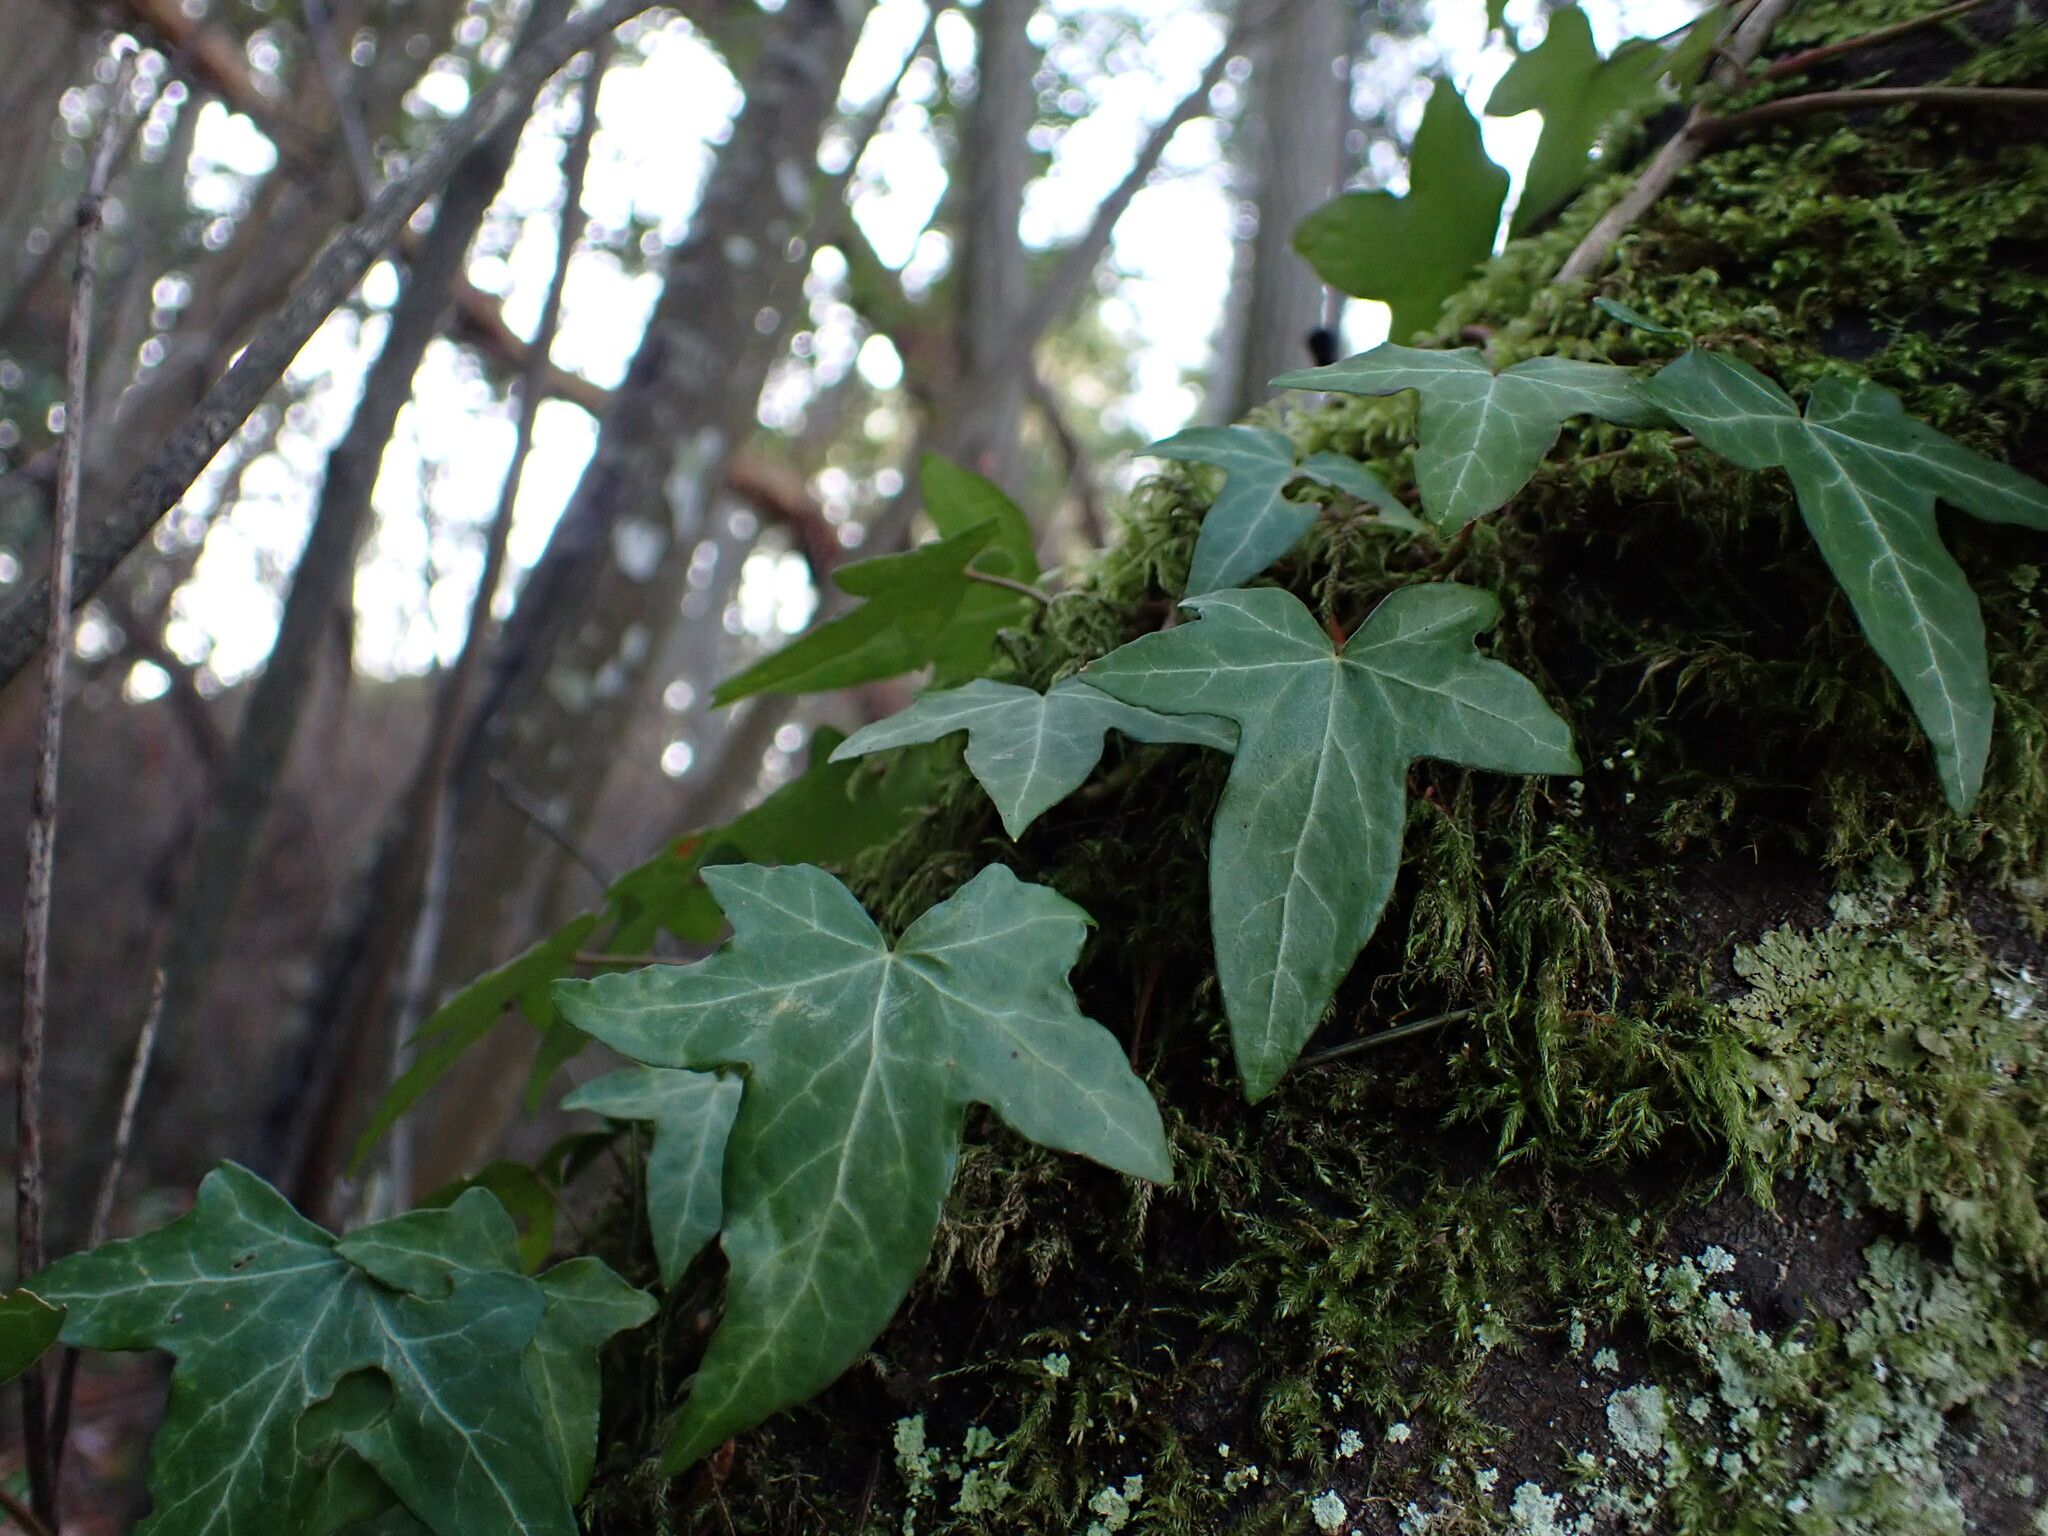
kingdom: Plantae
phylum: Tracheophyta
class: Magnoliopsida
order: Apiales
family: Araliaceae
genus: Hedera
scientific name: Hedera helix
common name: Ivy
